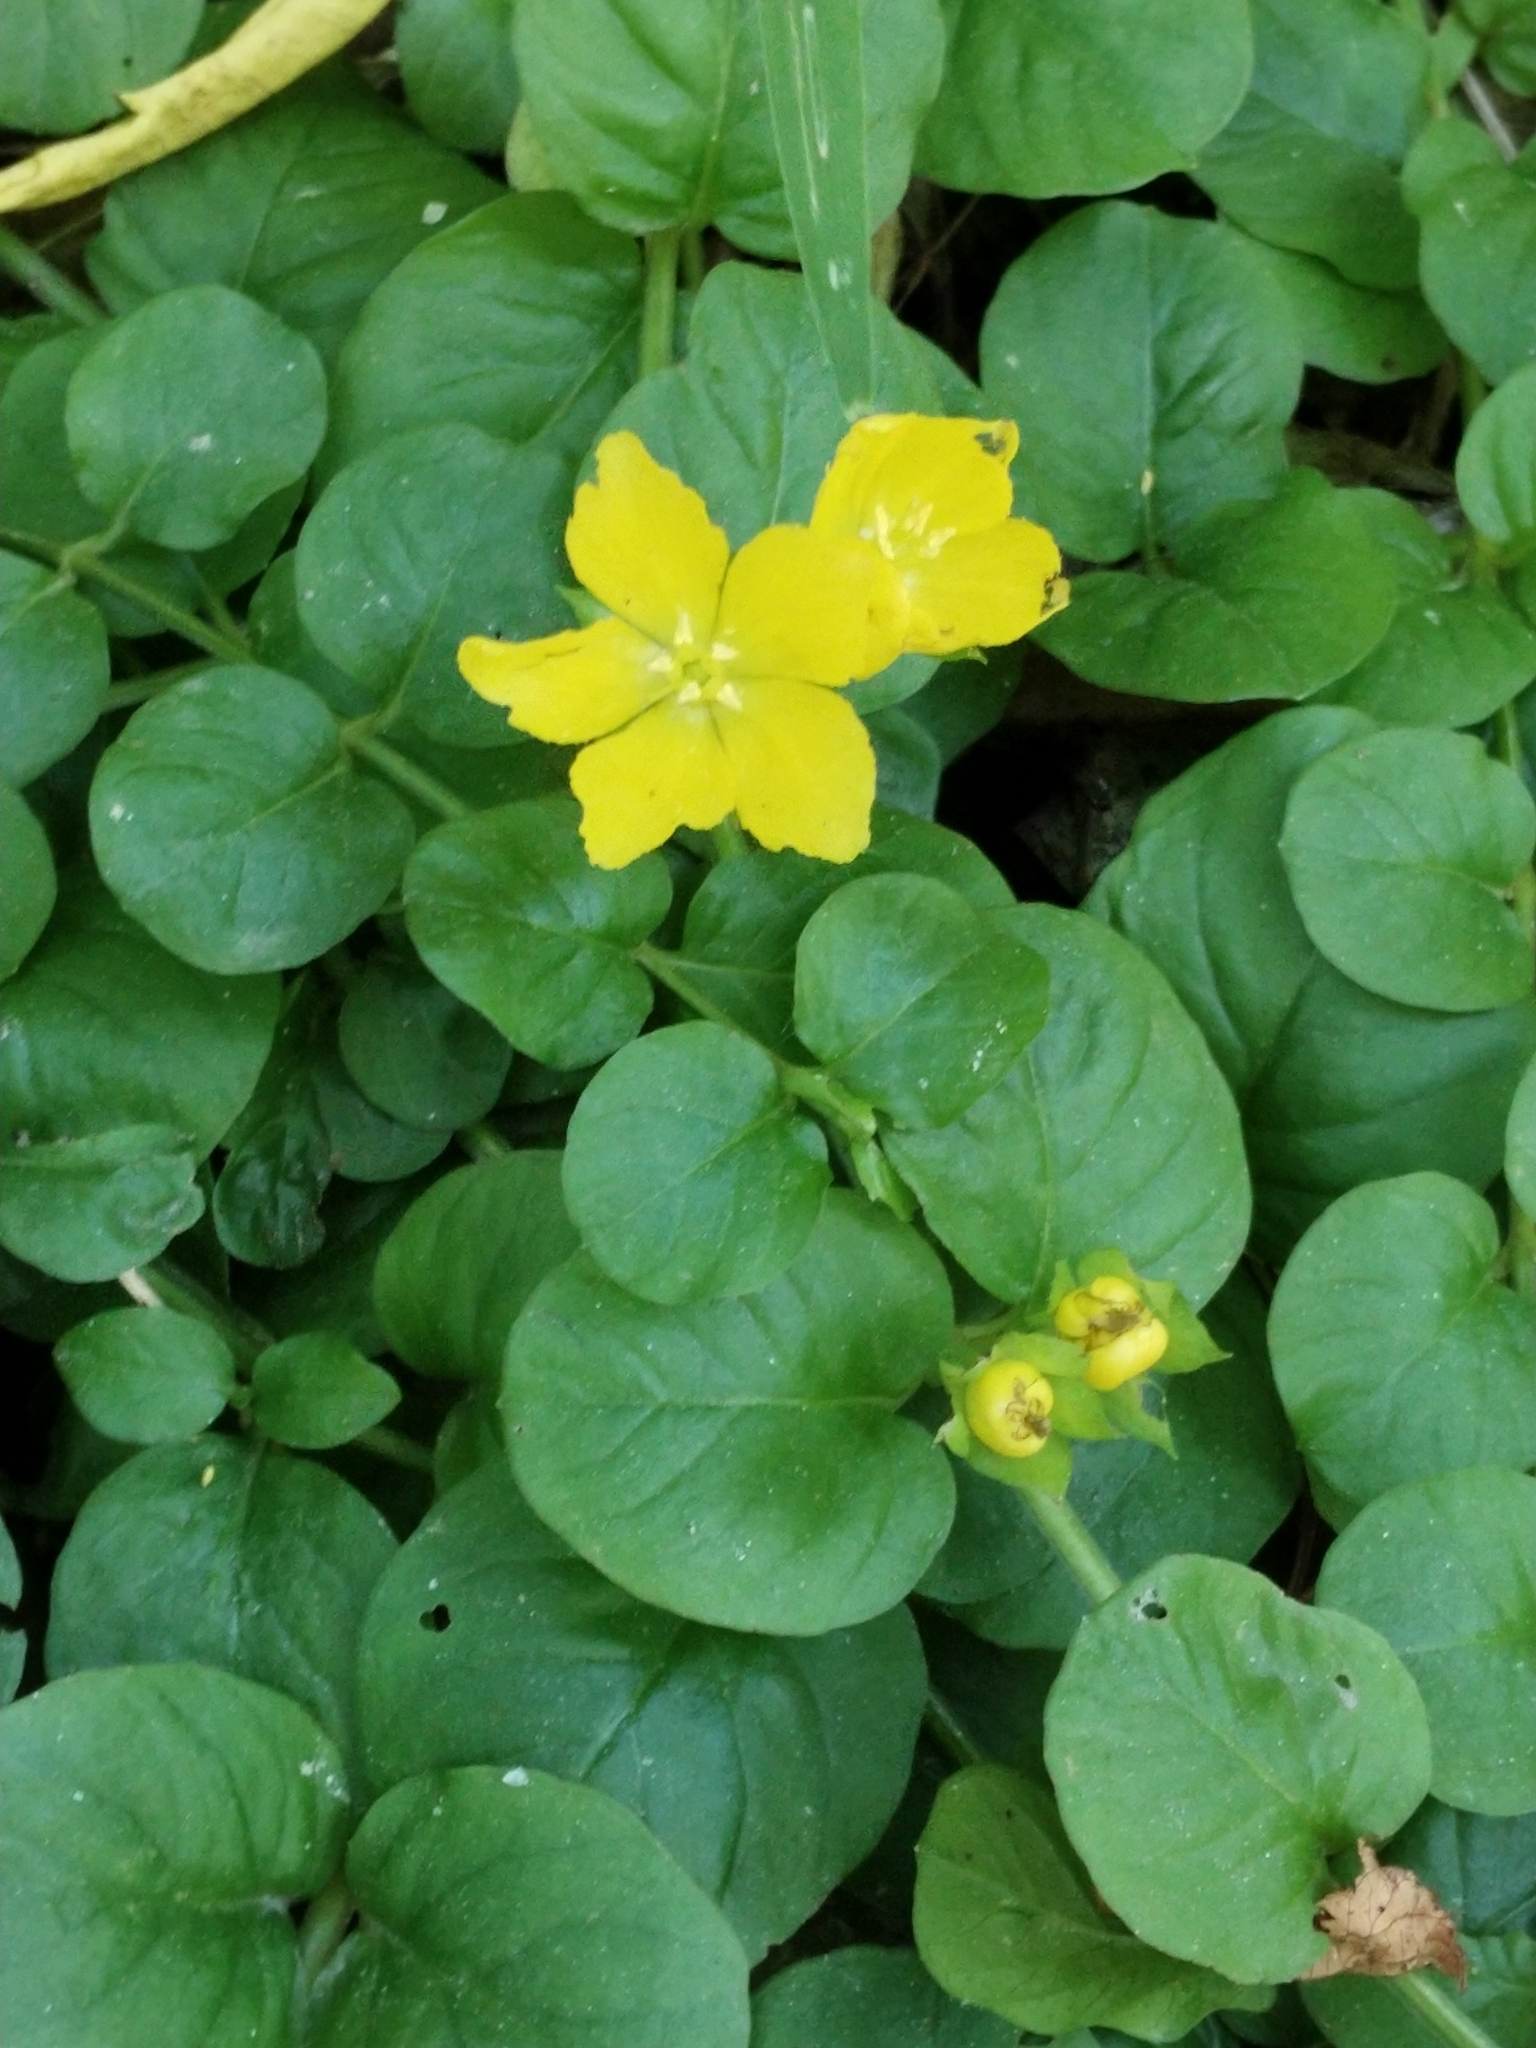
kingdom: Plantae
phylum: Tracheophyta
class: Magnoliopsida
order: Ericales
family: Primulaceae
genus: Lysimachia
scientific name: Lysimachia nummularia
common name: Moneywort
